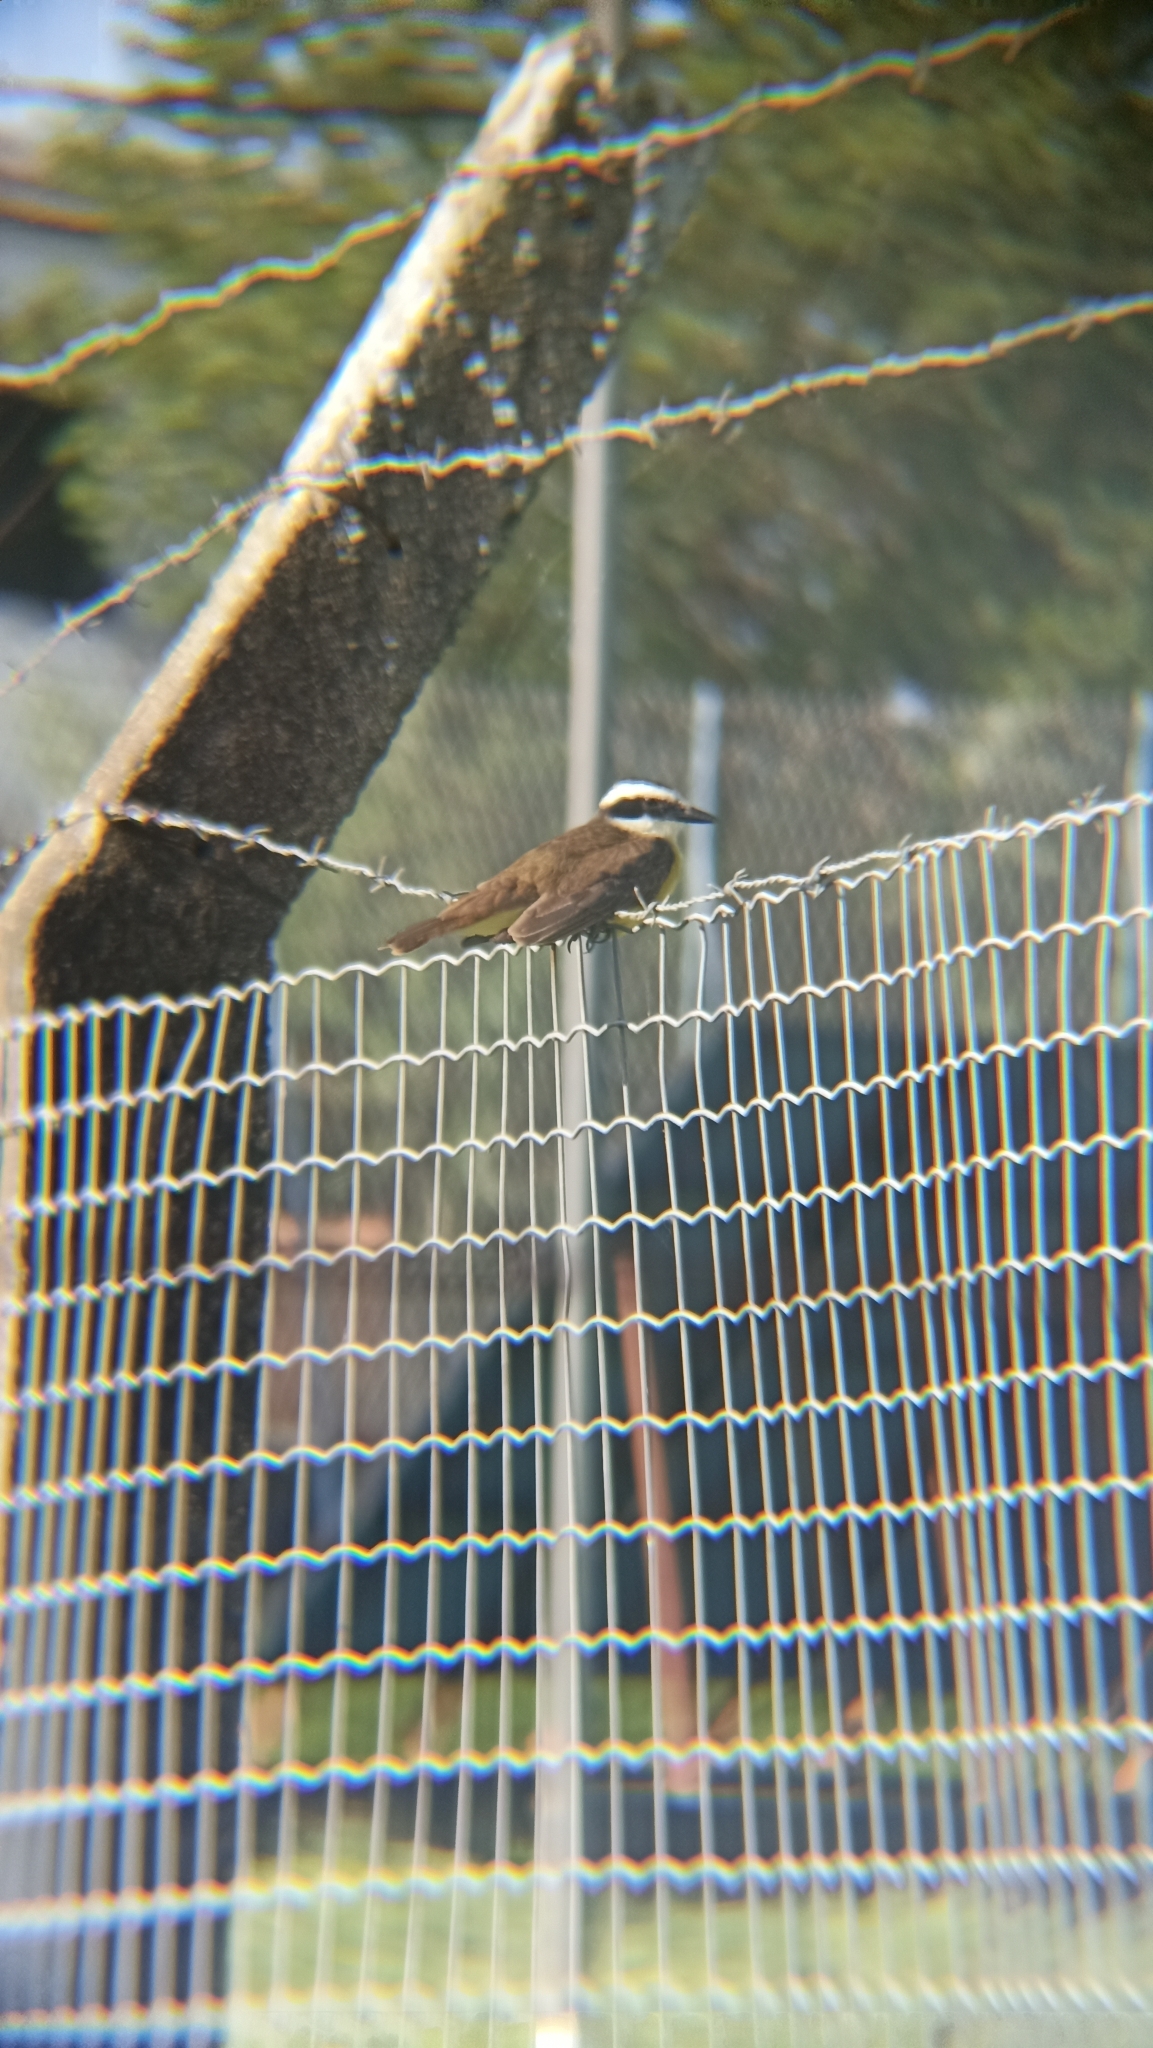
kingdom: Animalia
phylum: Chordata
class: Aves
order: Passeriformes
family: Tyrannidae
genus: Pitangus
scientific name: Pitangus sulphuratus
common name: Great kiskadee
